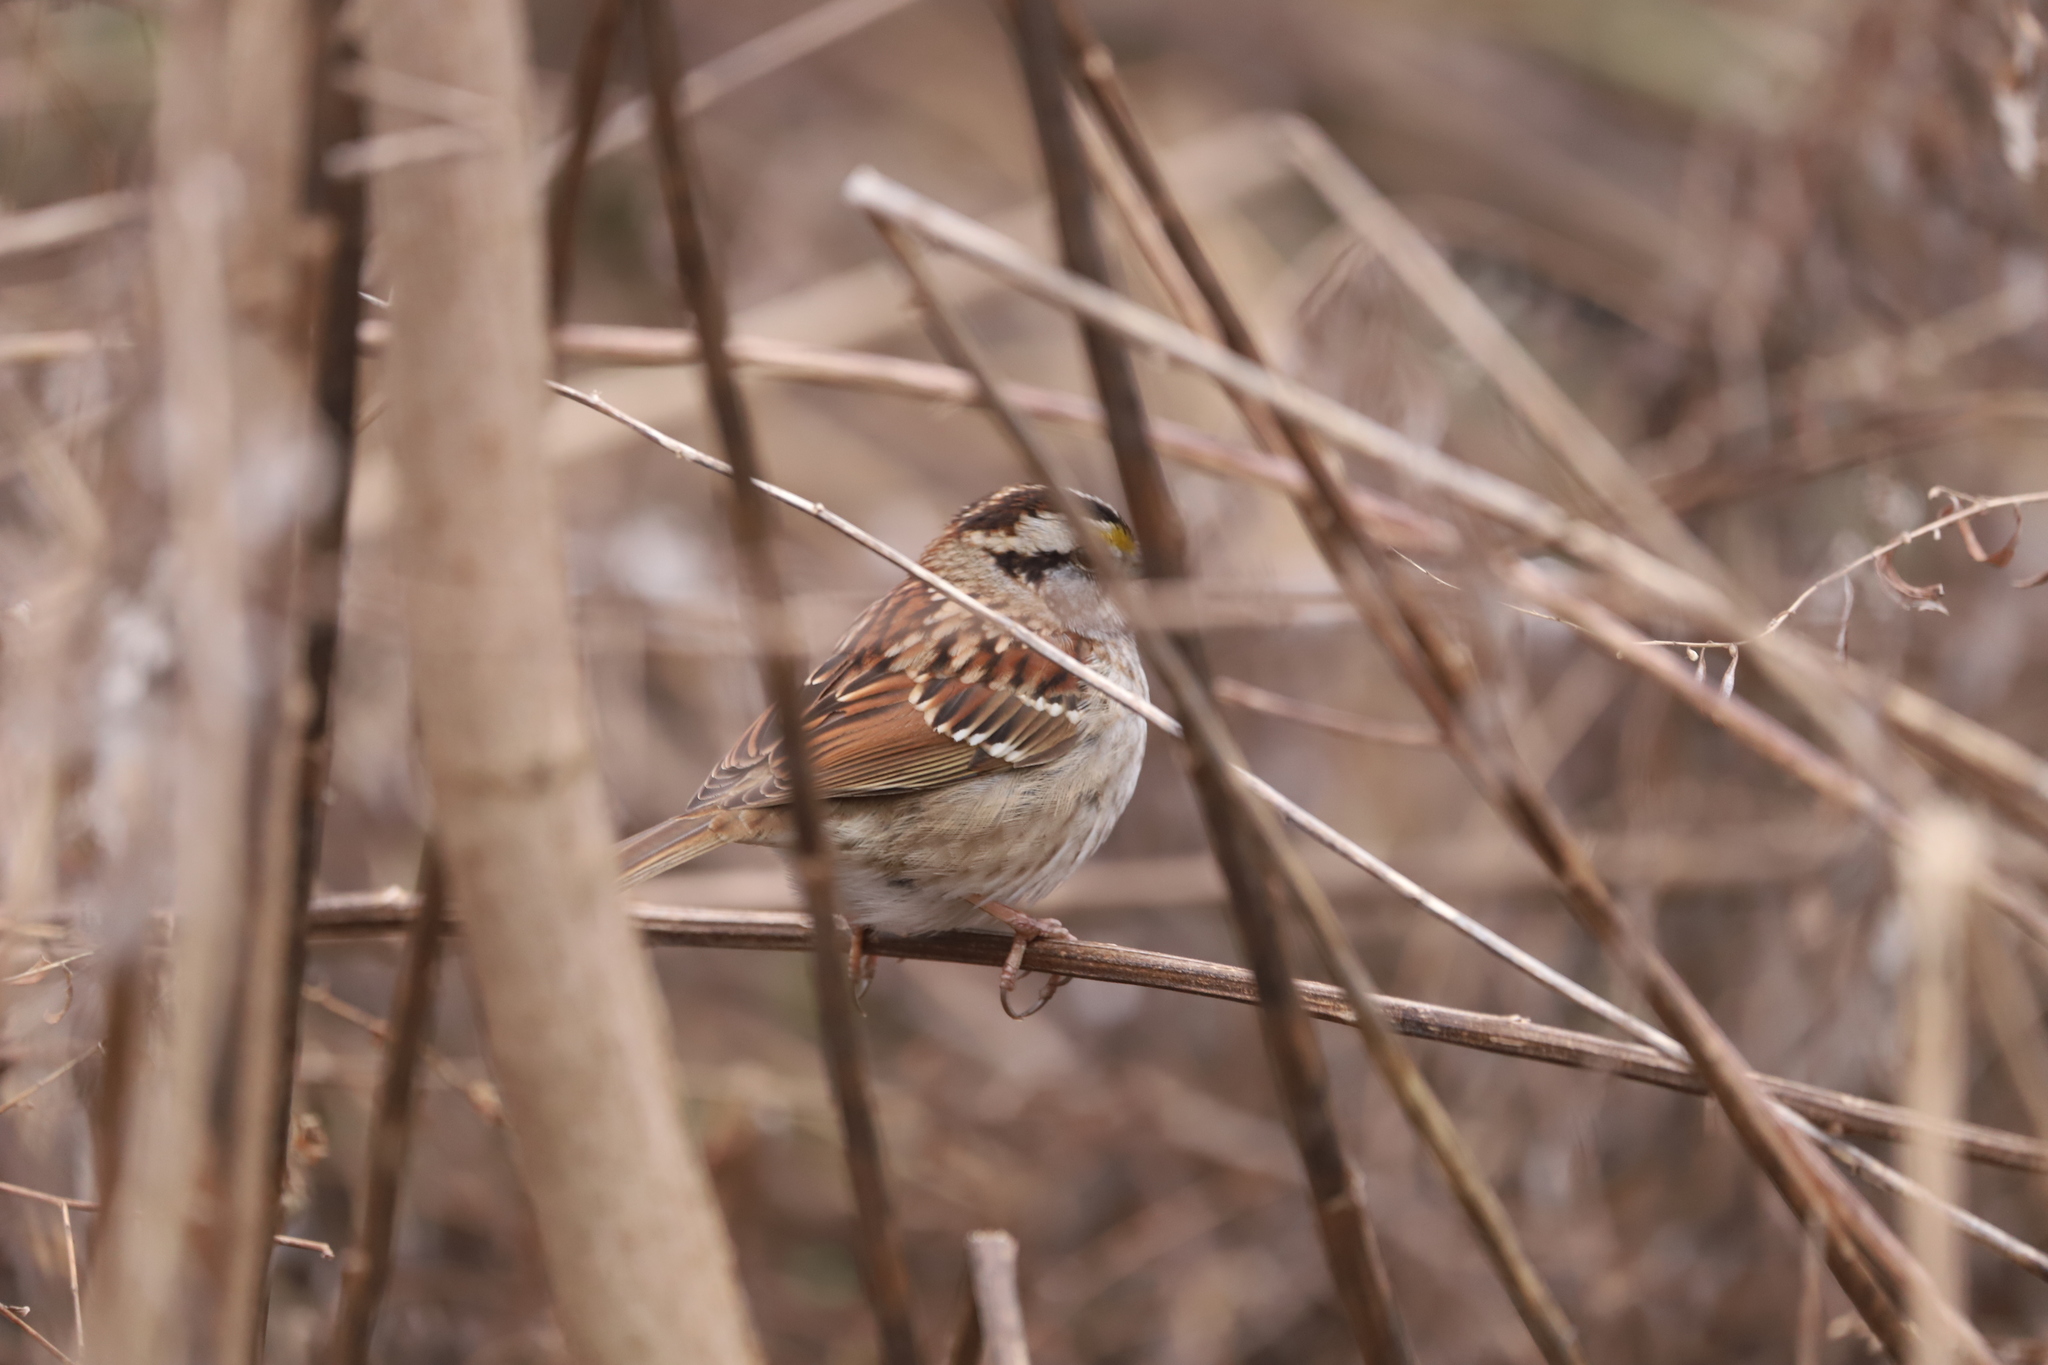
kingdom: Animalia
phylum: Chordata
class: Aves
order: Passeriformes
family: Passerellidae
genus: Zonotrichia
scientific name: Zonotrichia albicollis
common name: White-throated sparrow
